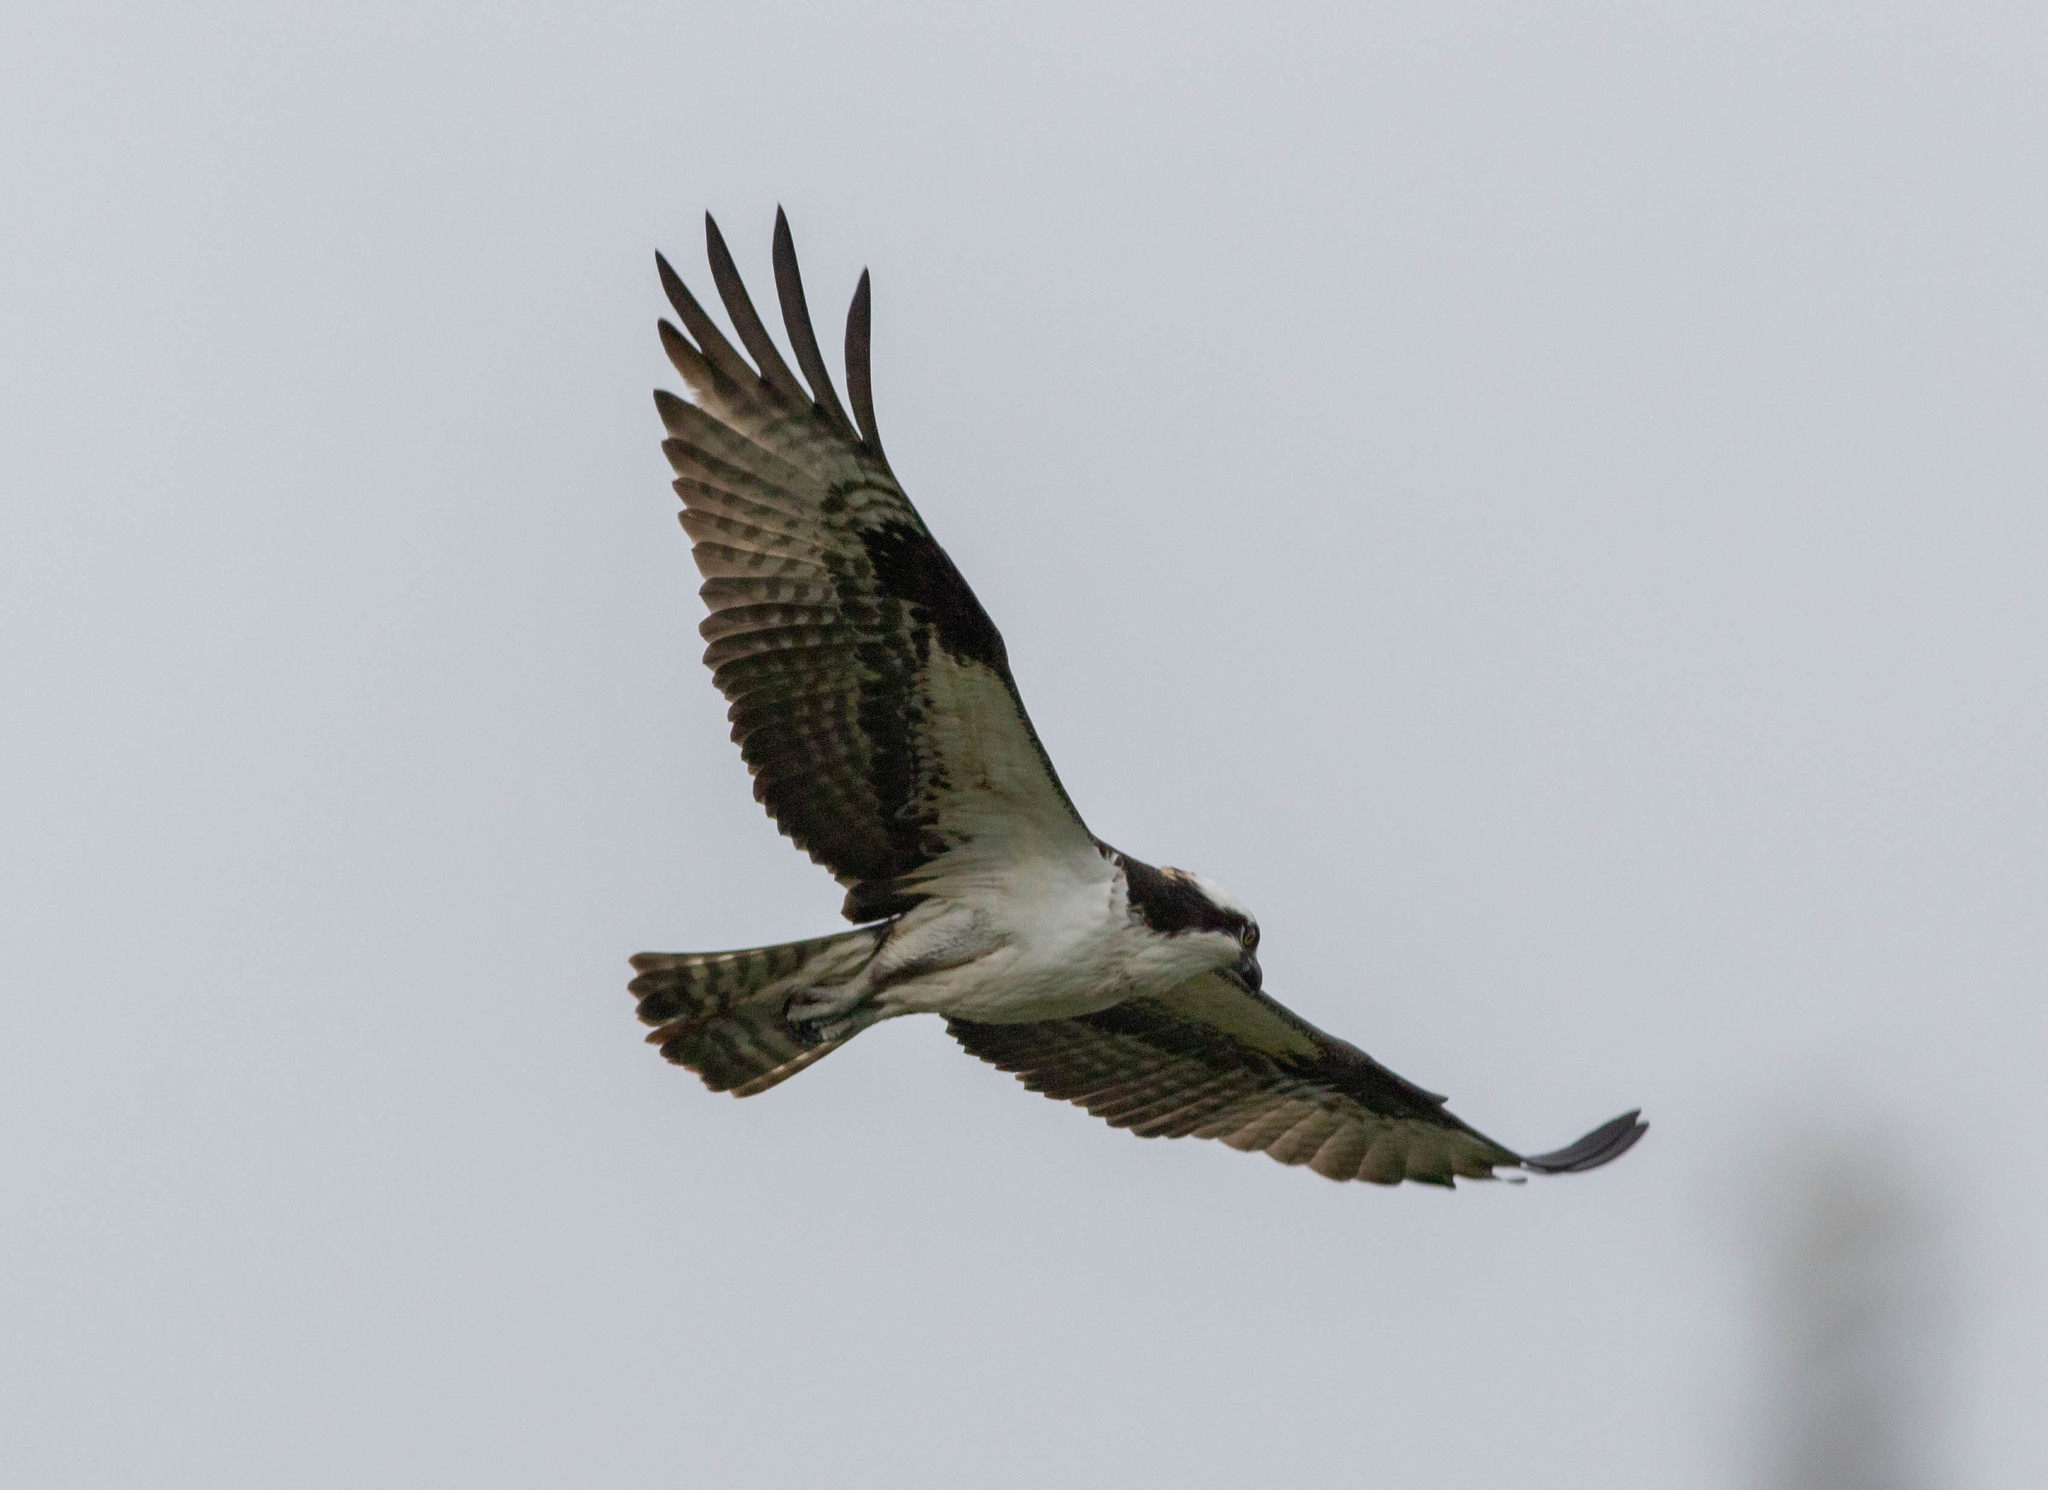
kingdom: Animalia
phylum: Chordata
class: Aves
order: Accipitriformes
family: Pandionidae
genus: Pandion
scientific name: Pandion haliaetus
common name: Osprey
